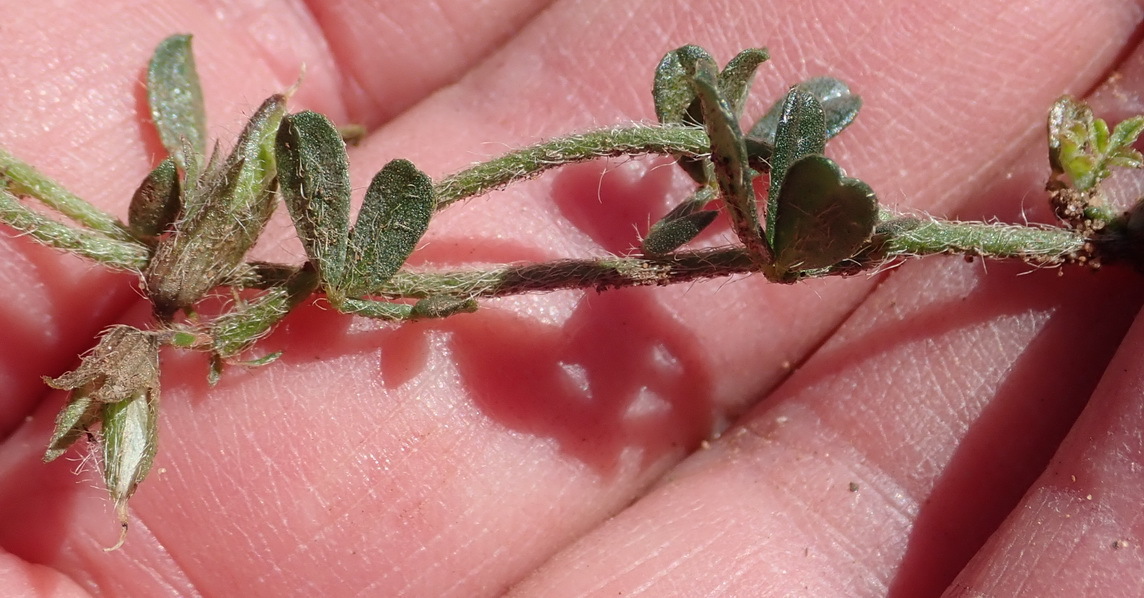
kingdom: Plantae
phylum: Tracheophyta
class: Magnoliopsida
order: Fabales
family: Fabaceae
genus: Lotononis
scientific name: Lotononis umbellata
